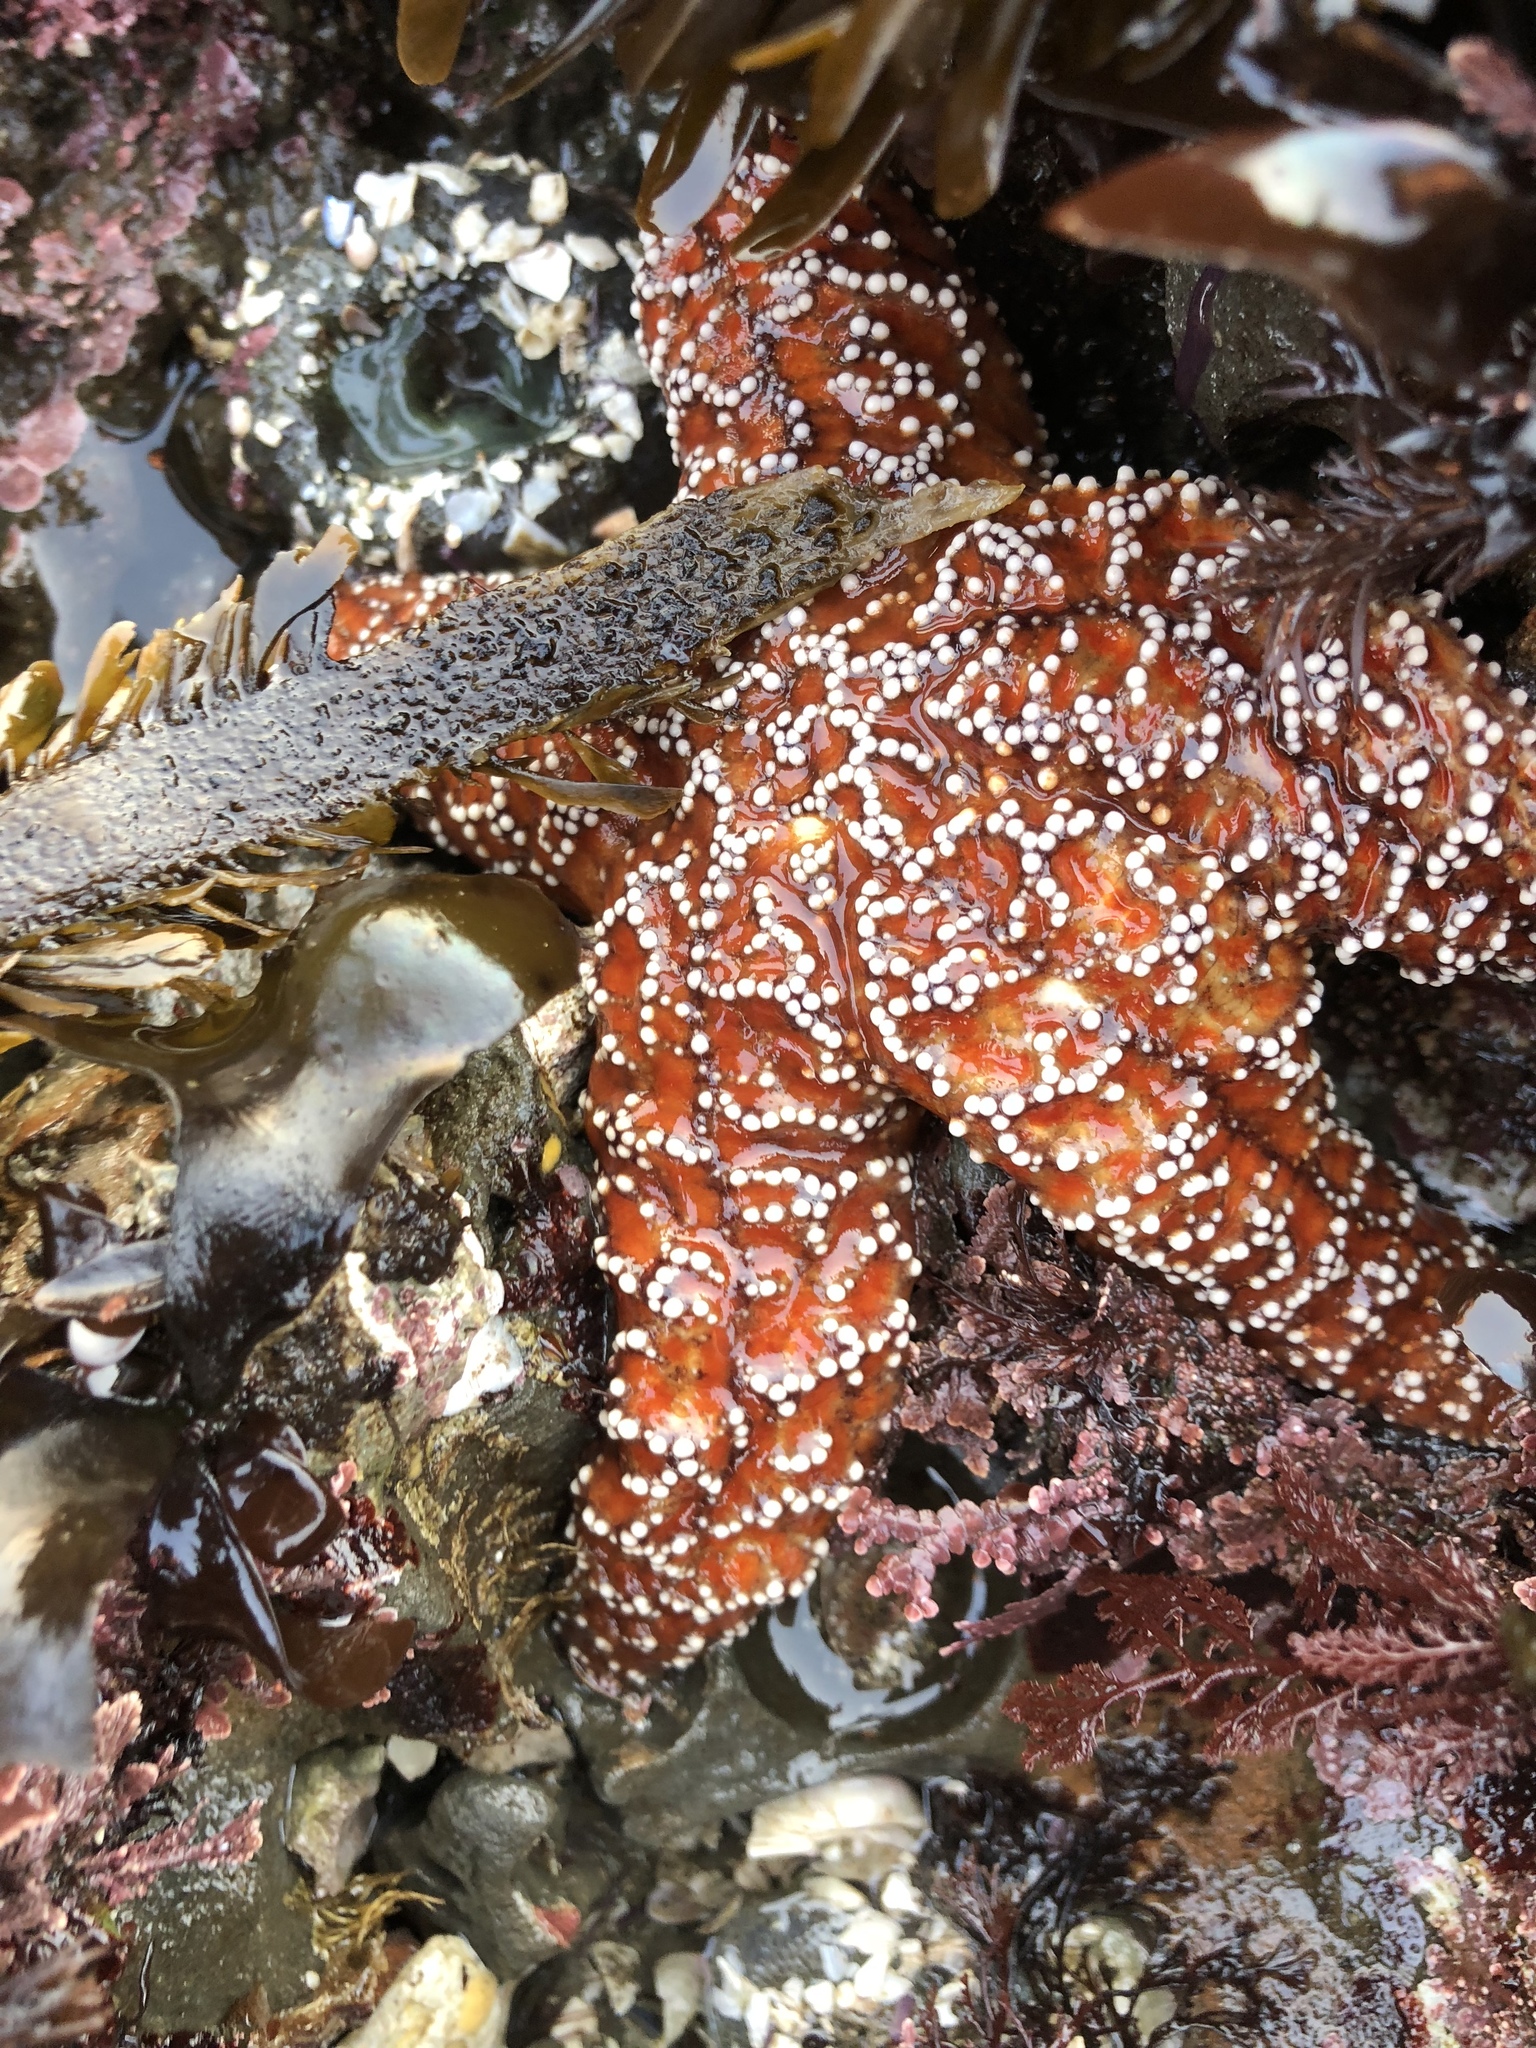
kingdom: Animalia
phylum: Echinodermata
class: Asteroidea
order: Forcipulatida
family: Asteriidae
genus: Pisaster
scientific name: Pisaster ochraceus
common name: Ochre stars
